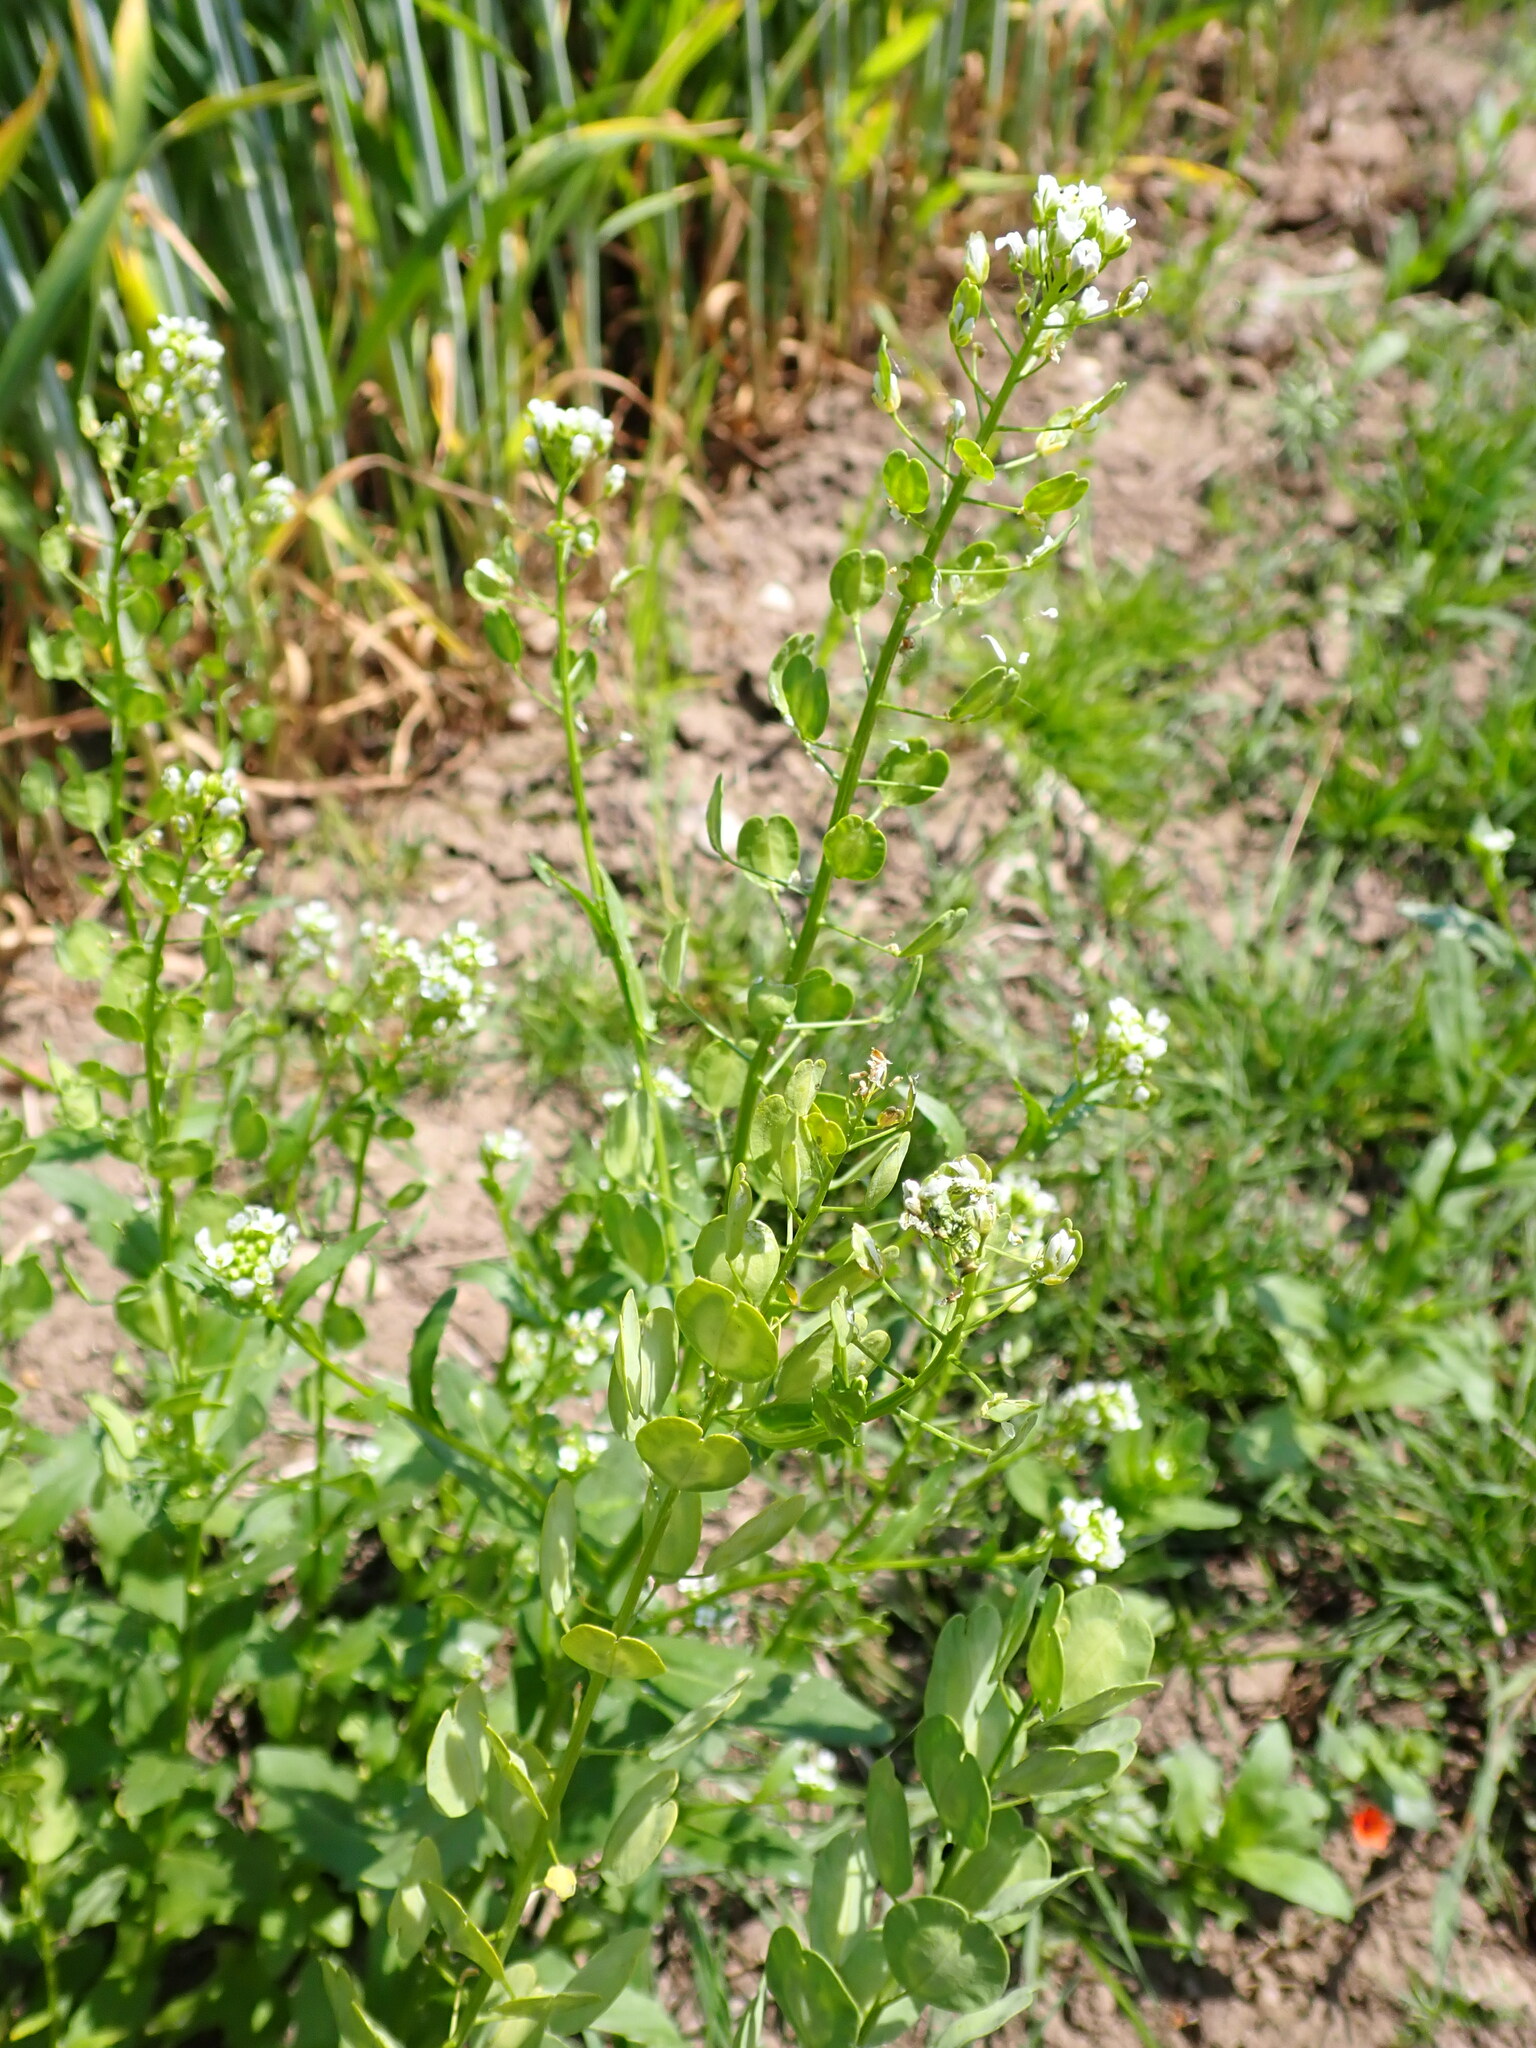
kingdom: Plantae
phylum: Tracheophyta
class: Magnoliopsida
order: Brassicales
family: Brassicaceae
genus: Thlaspi
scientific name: Thlaspi arvense
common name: Field pennycress
